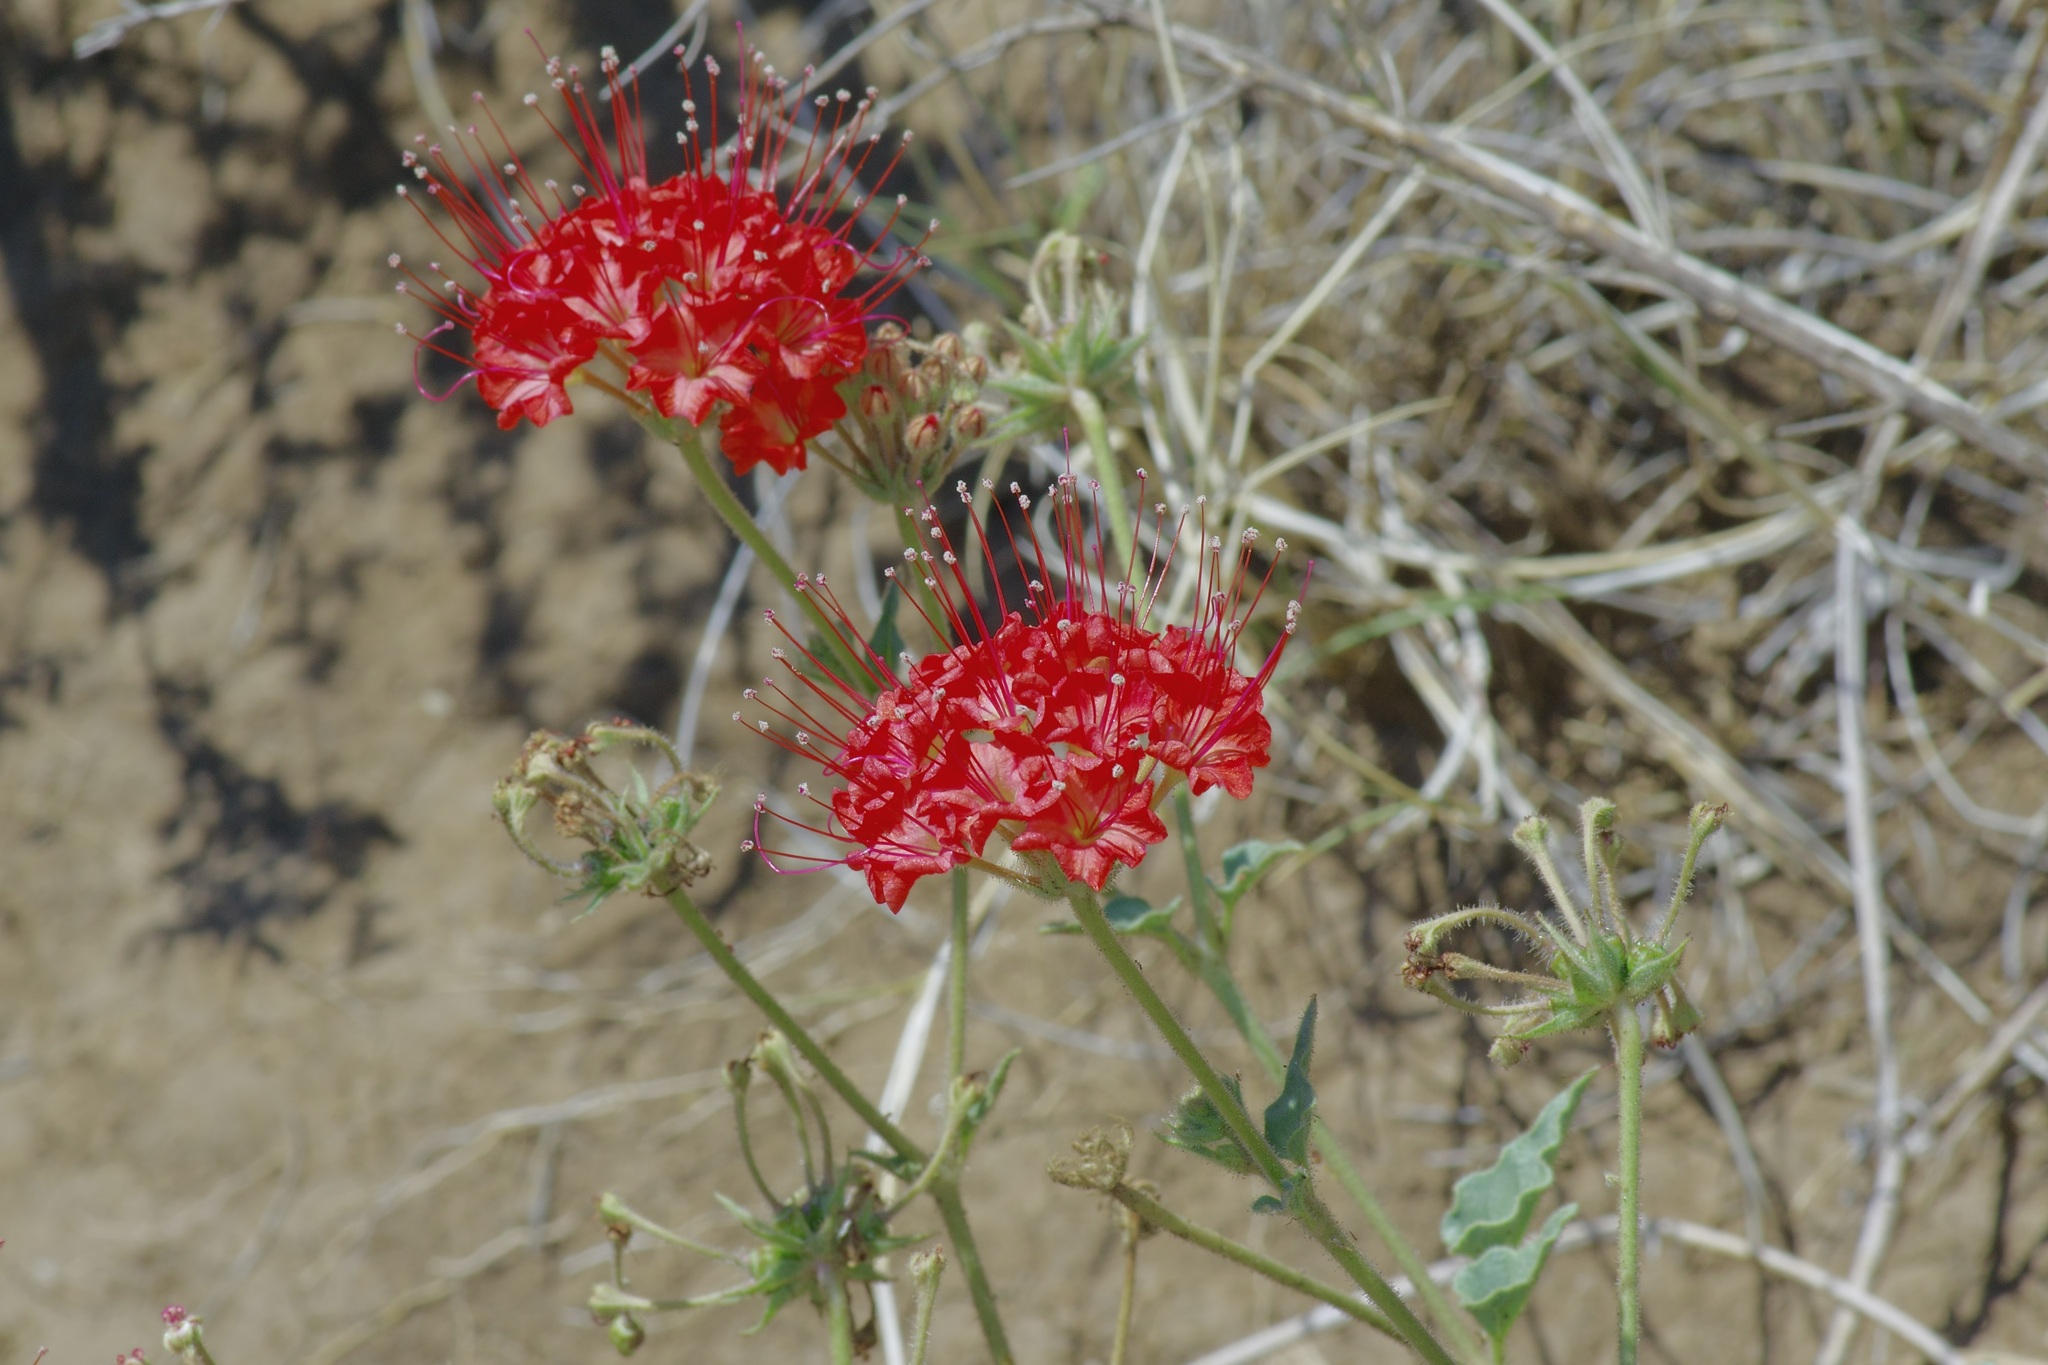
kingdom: Plantae
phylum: Tracheophyta
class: Magnoliopsida
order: Caryophyllales
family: Nyctaginaceae
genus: Nyctaginia
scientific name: Nyctaginia capitata
